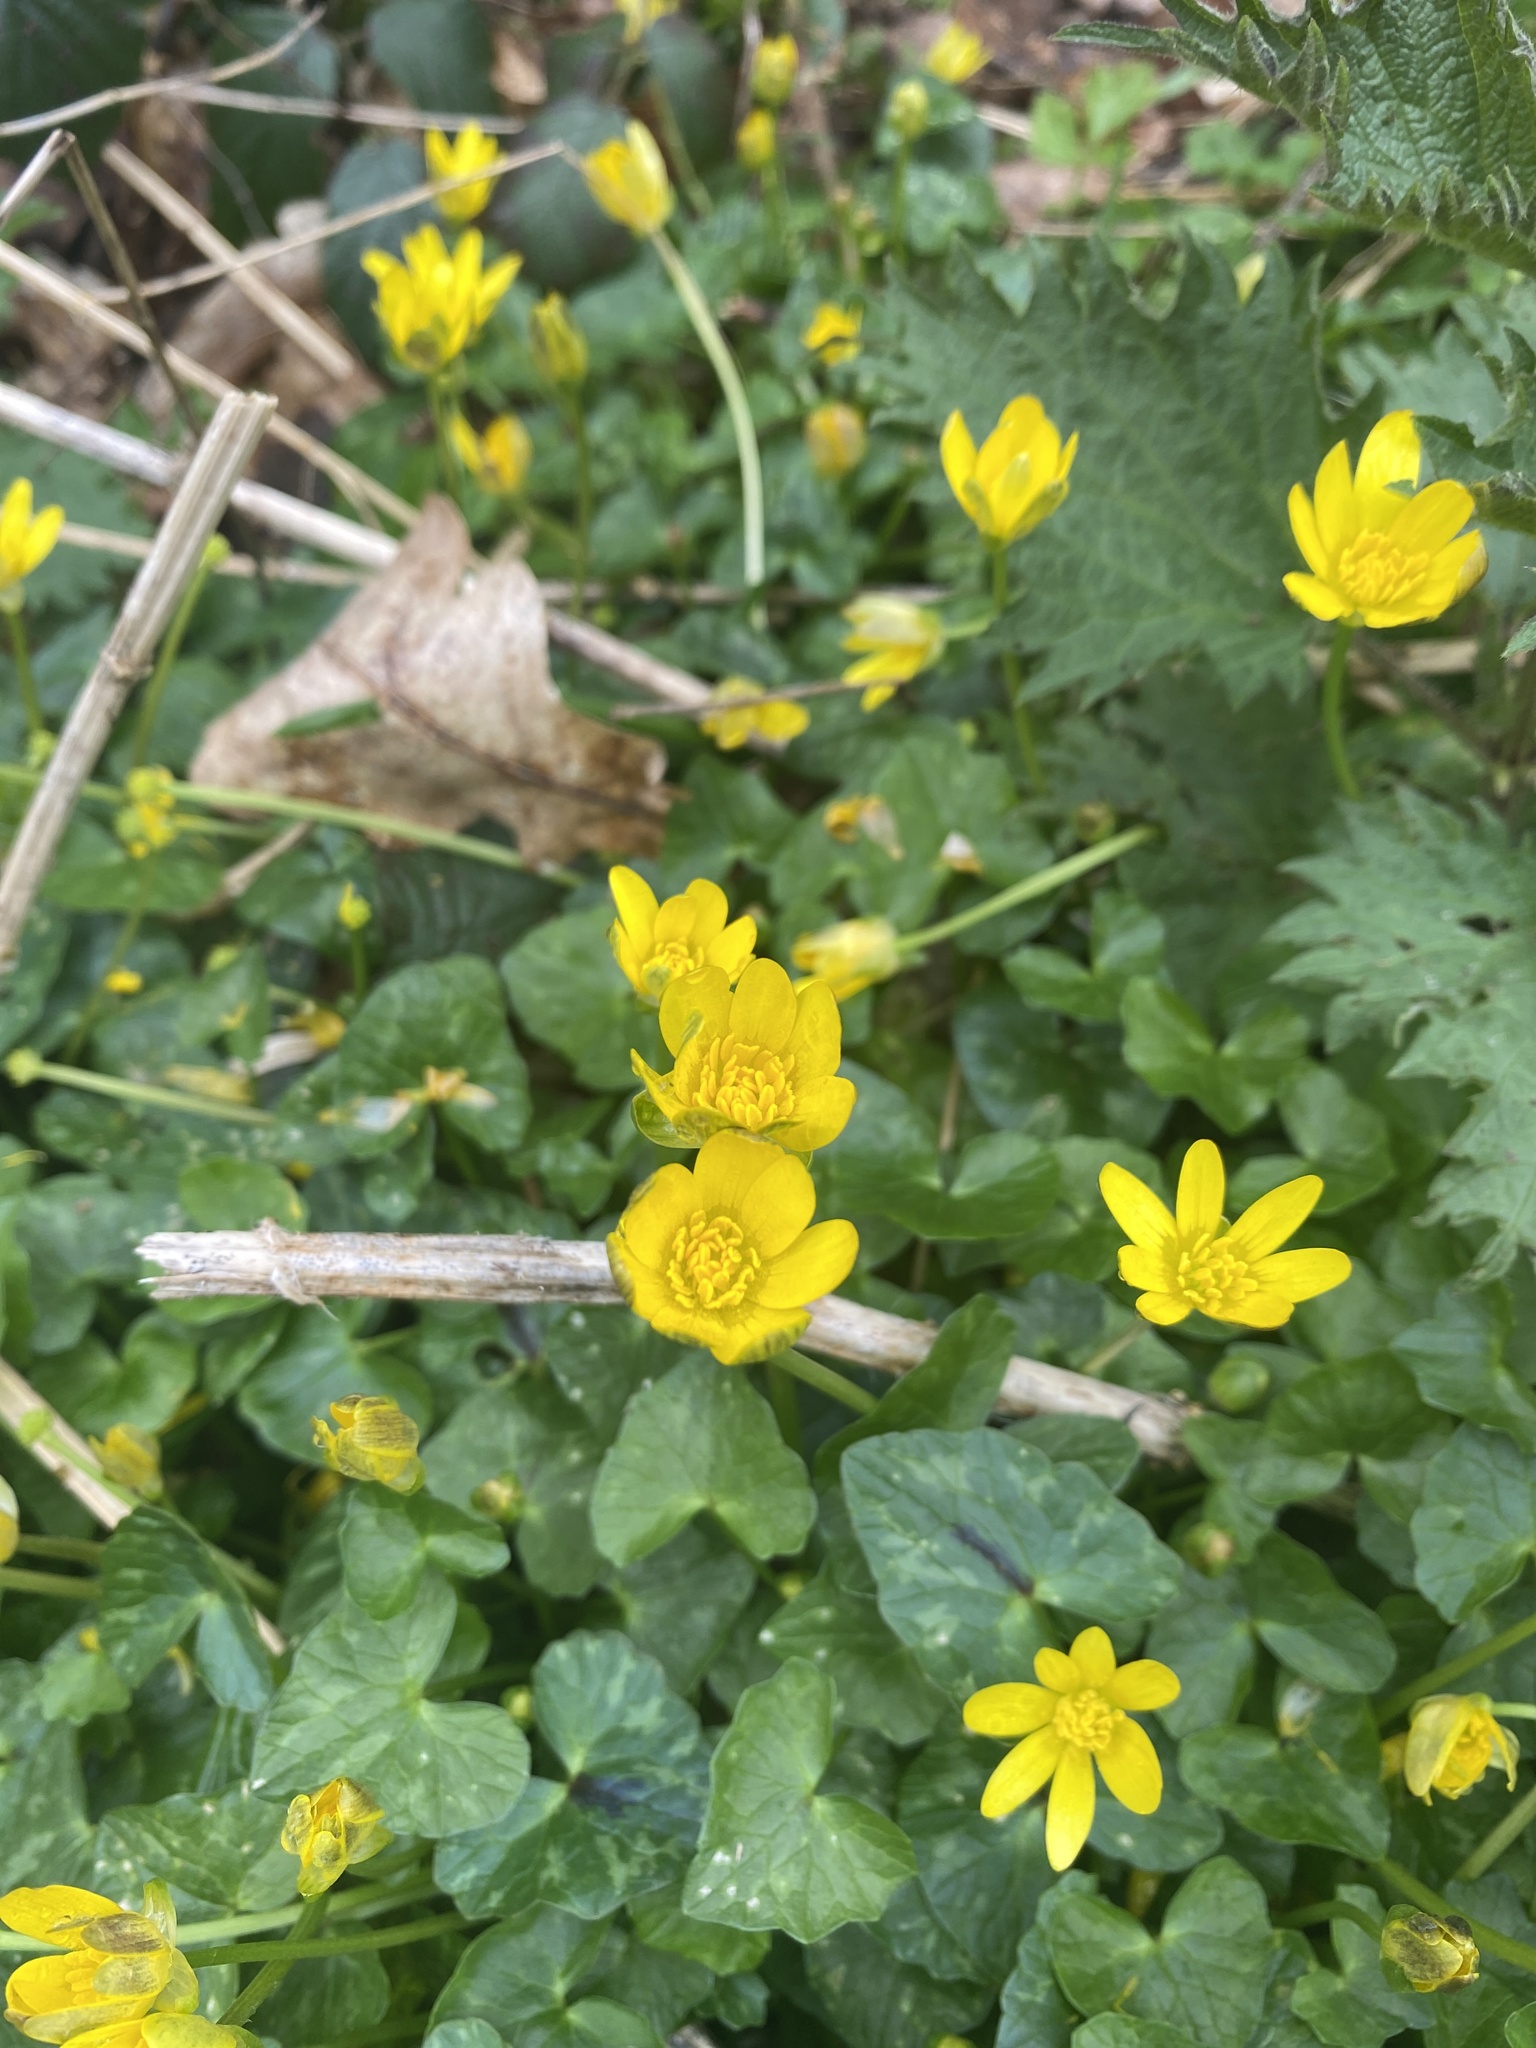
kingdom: Plantae
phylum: Tracheophyta
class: Magnoliopsida
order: Ranunculales
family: Ranunculaceae
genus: Ficaria
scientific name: Ficaria verna
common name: Lesser celandine
